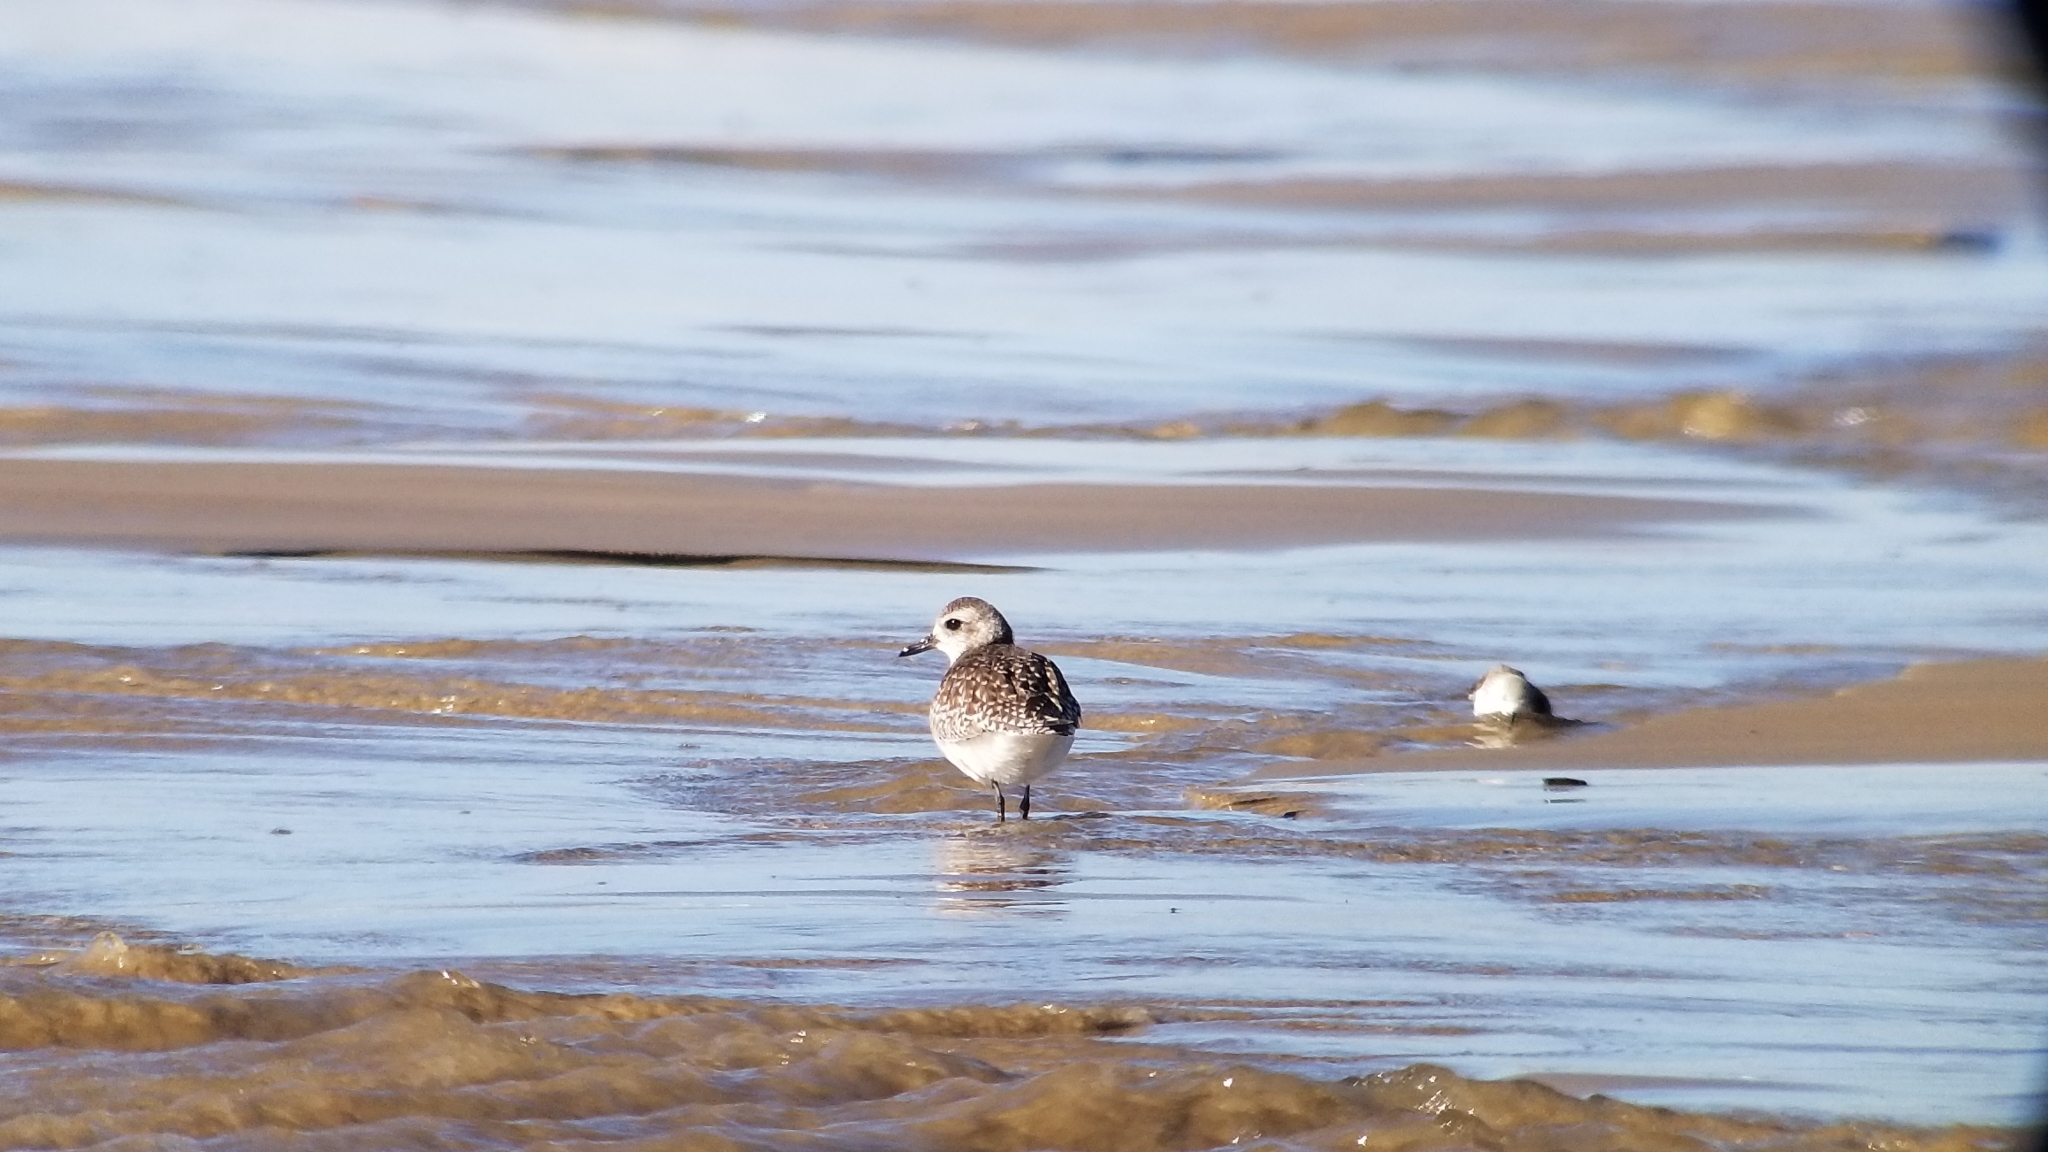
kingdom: Animalia
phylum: Chordata
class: Aves
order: Charadriiformes
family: Charadriidae
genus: Pluvialis
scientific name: Pluvialis squatarola
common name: Grey plover
